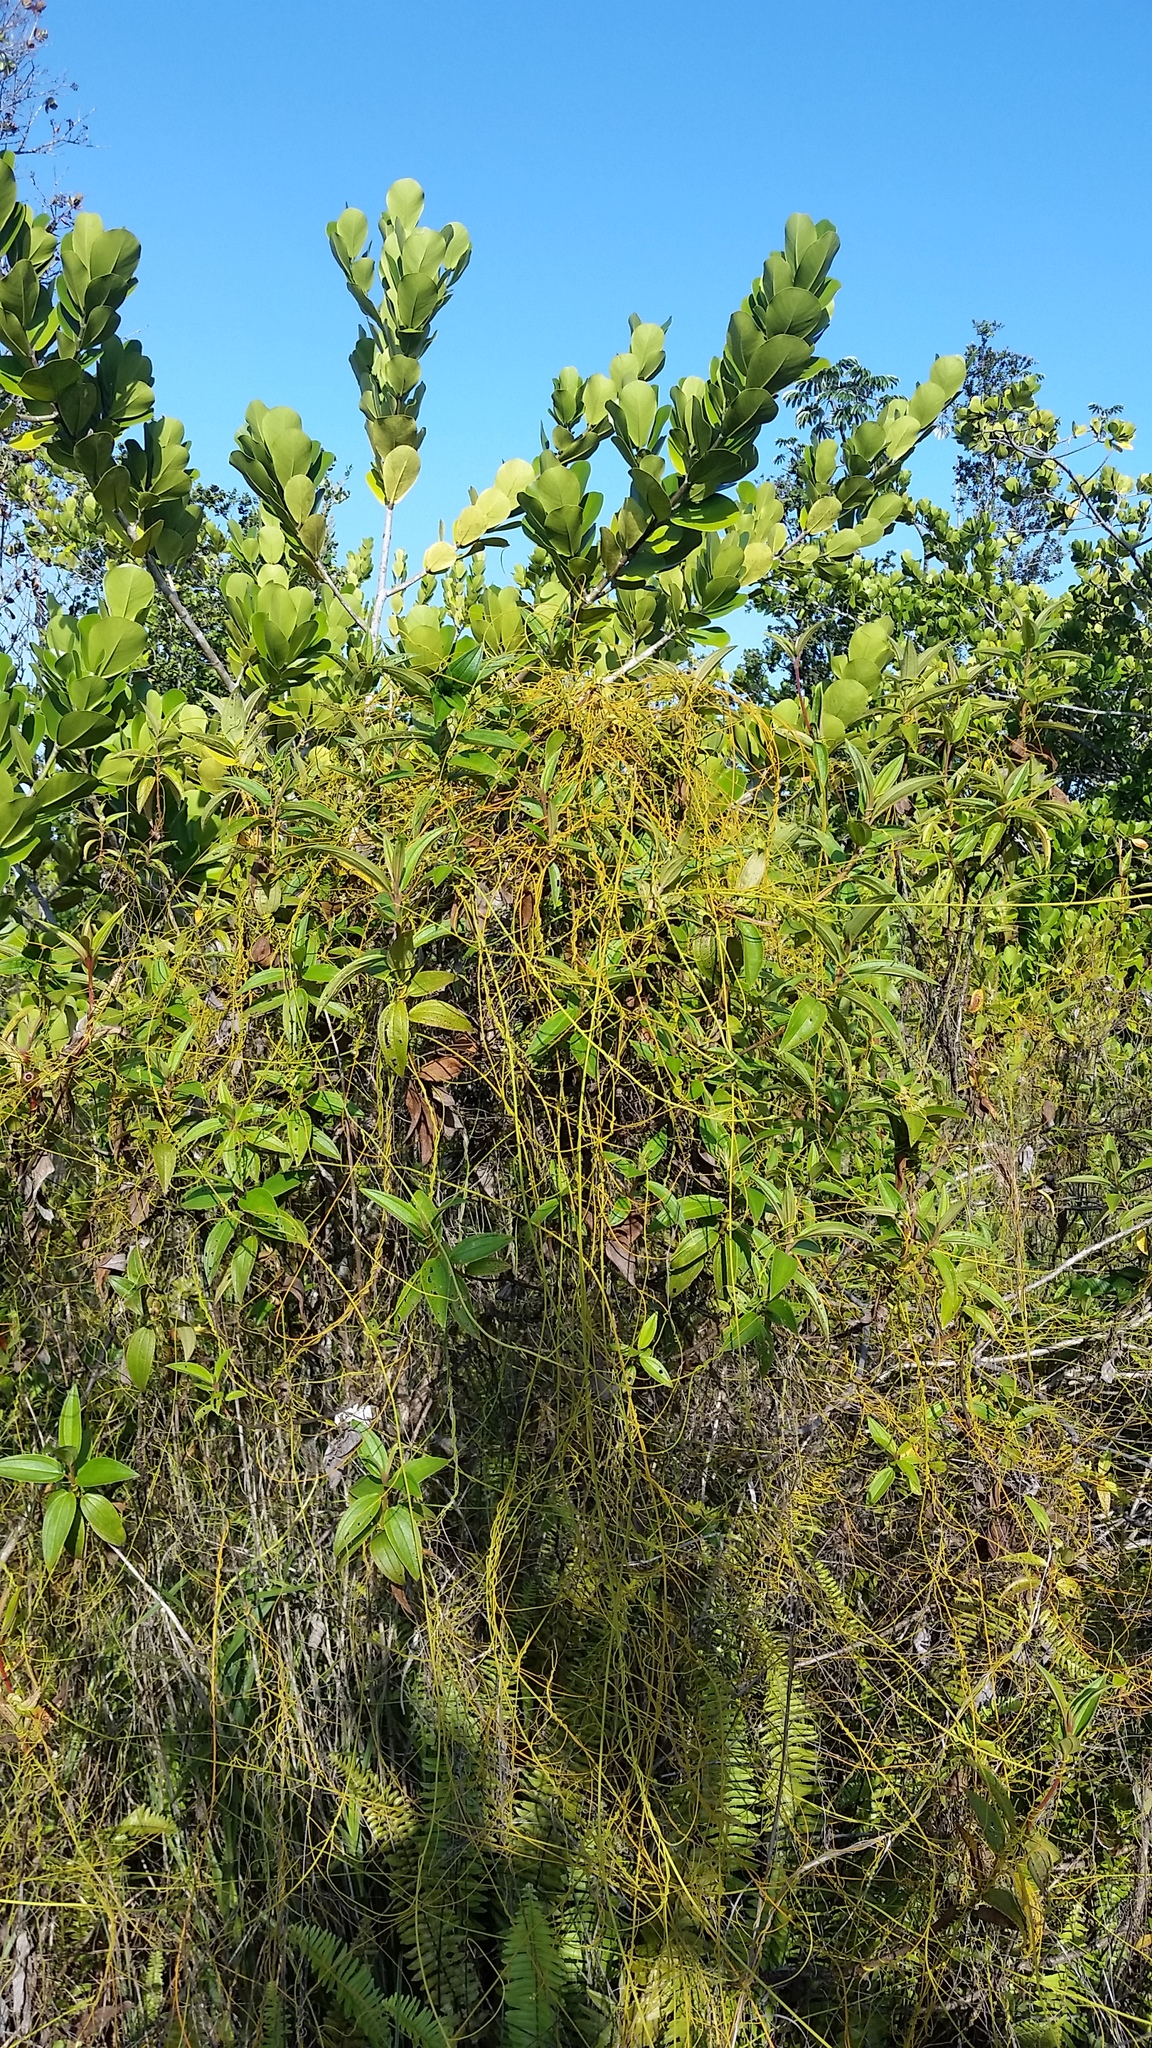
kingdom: Plantae
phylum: Tracheophyta
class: Magnoliopsida
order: Laurales
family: Lauraceae
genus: Cassytha
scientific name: Cassytha filiformis
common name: Dodder-laurel
